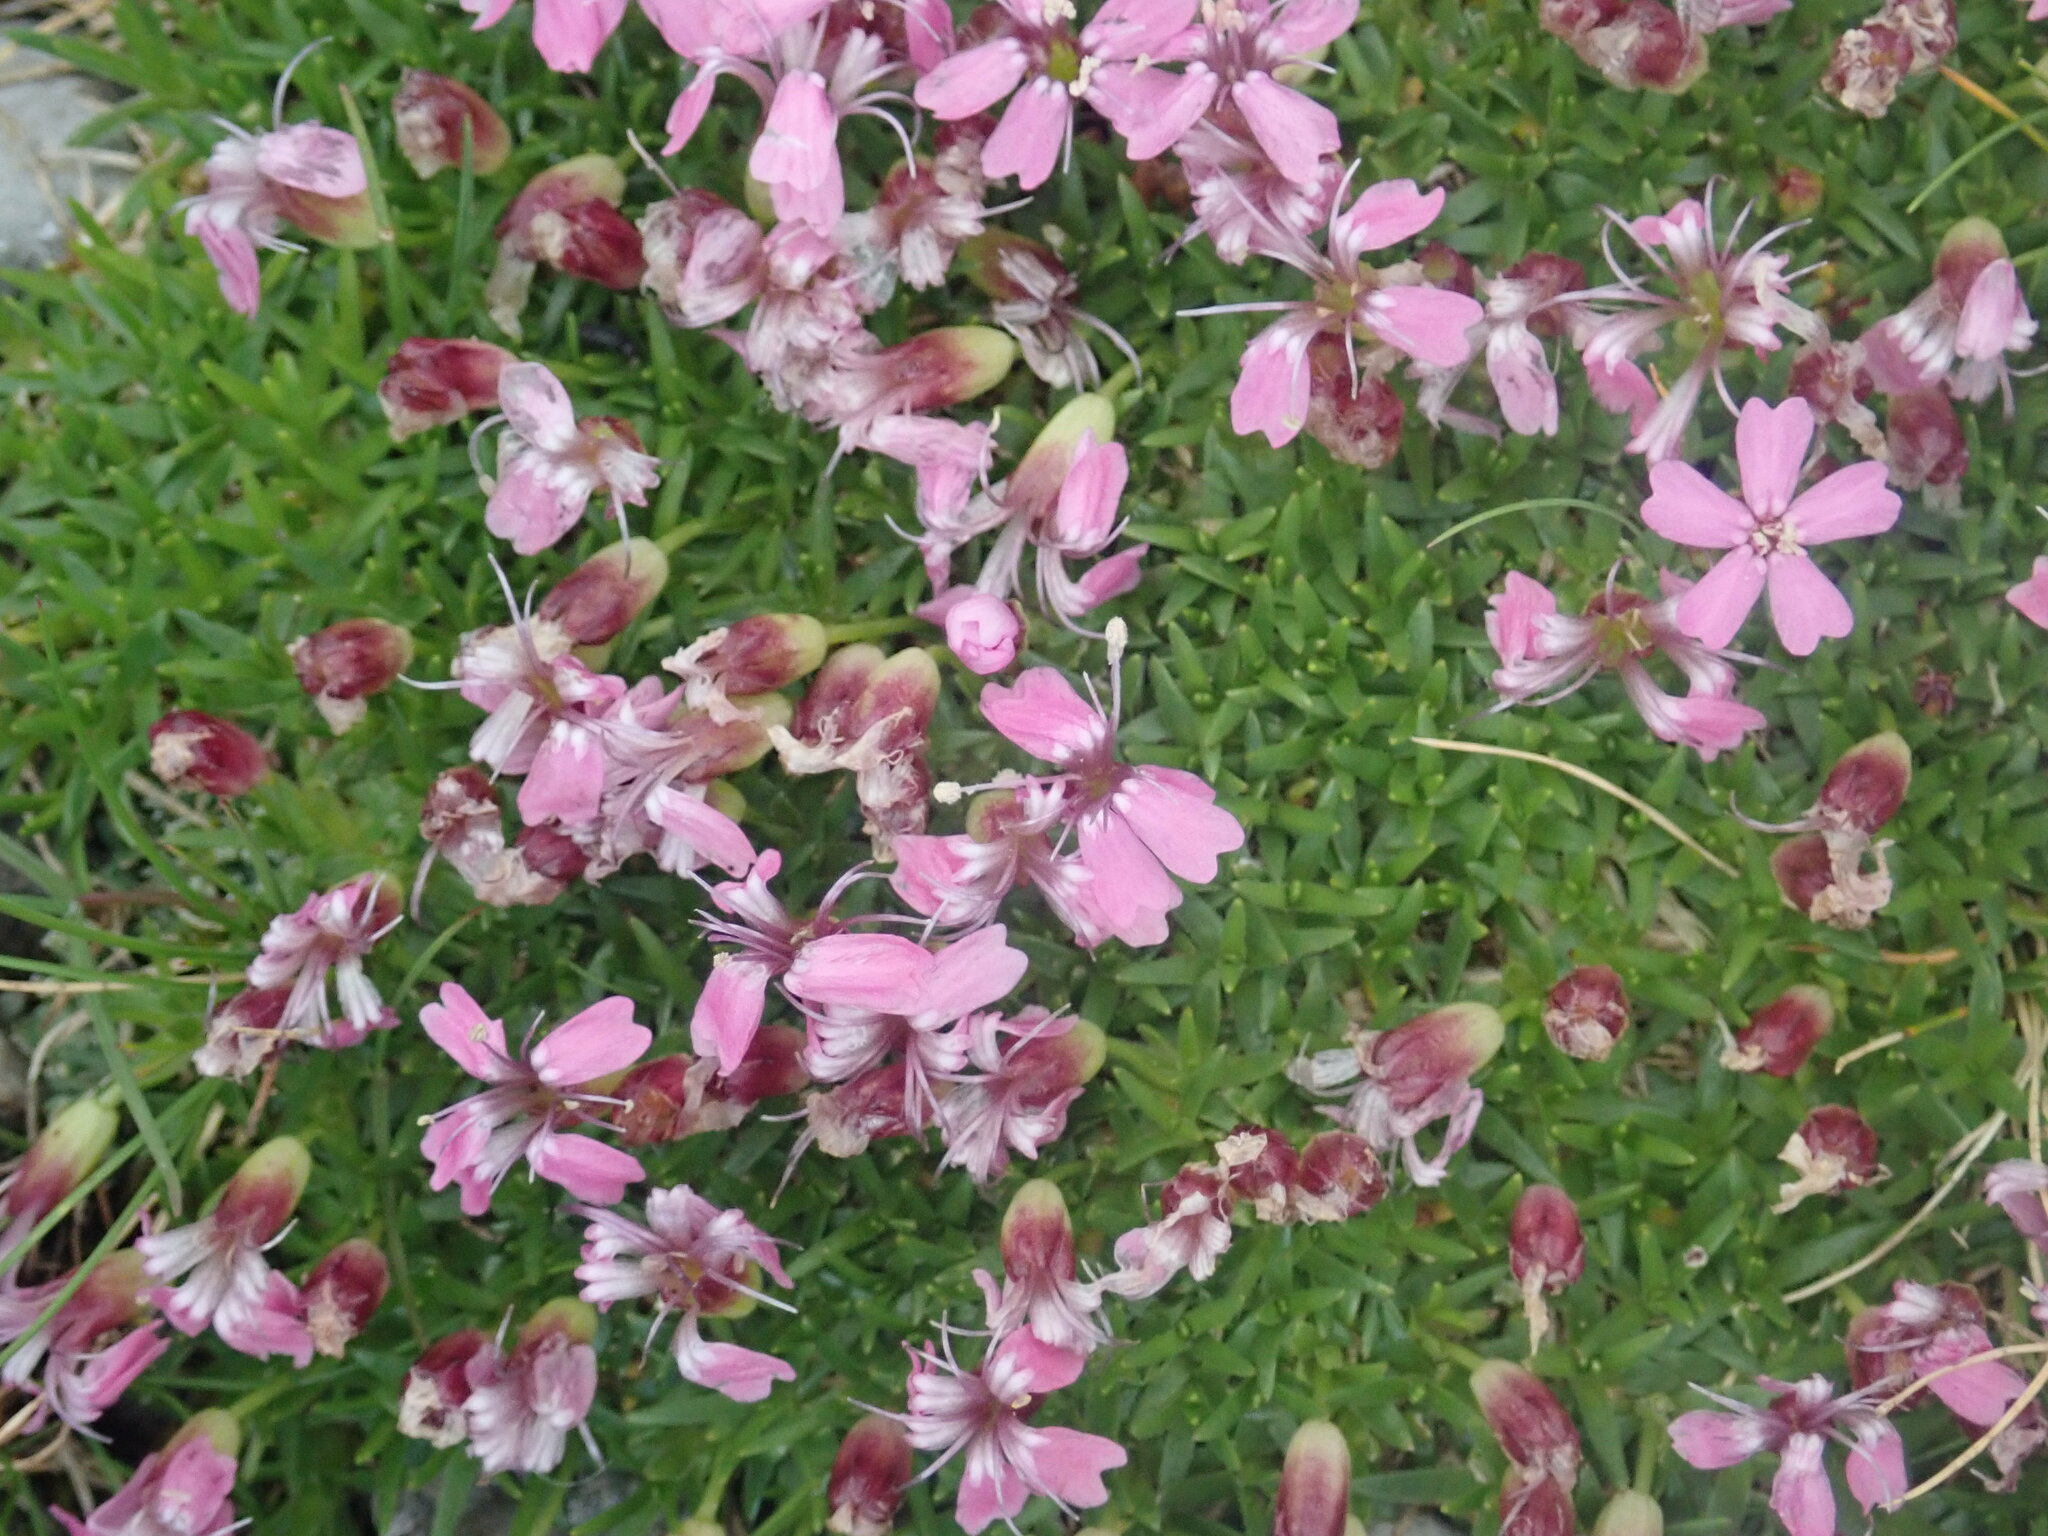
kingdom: Plantae
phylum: Tracheophyta
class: Magnoliopsida
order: Caryophyllales
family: Caryophyllaceae
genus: Silene
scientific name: Silene acaulis
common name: Moss campion
